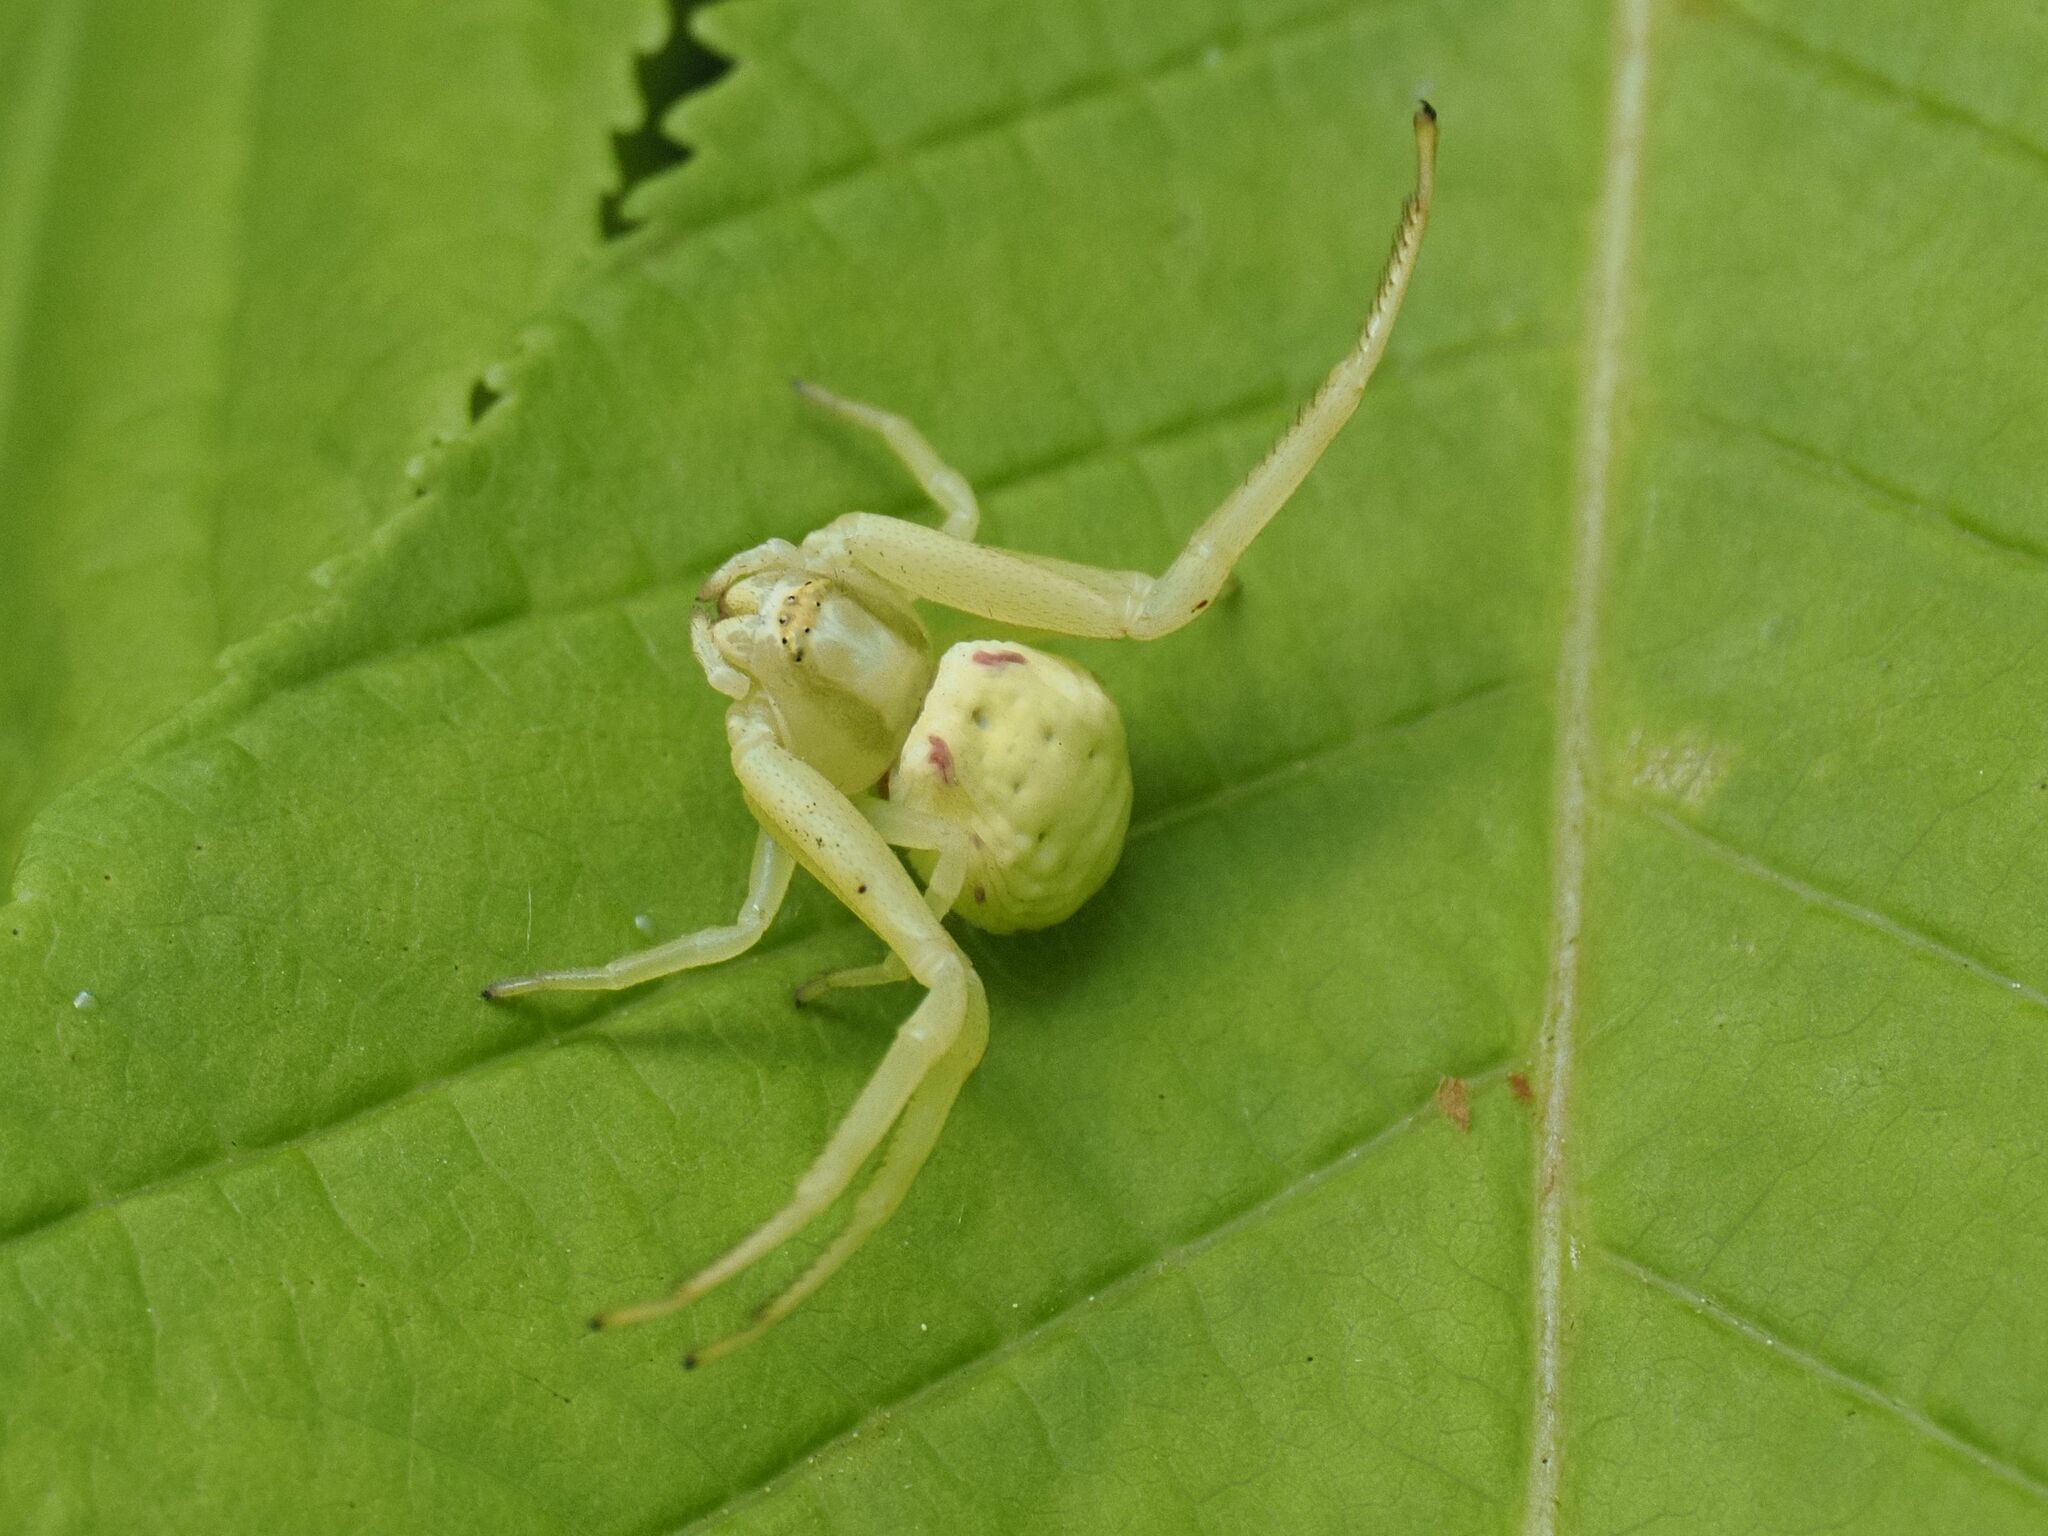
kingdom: Animalia
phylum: Arthropoda
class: Arachnida
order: Araneae
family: Thomisidae
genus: Misumena
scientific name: Misumena vatia
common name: Goldenrod crab spider
